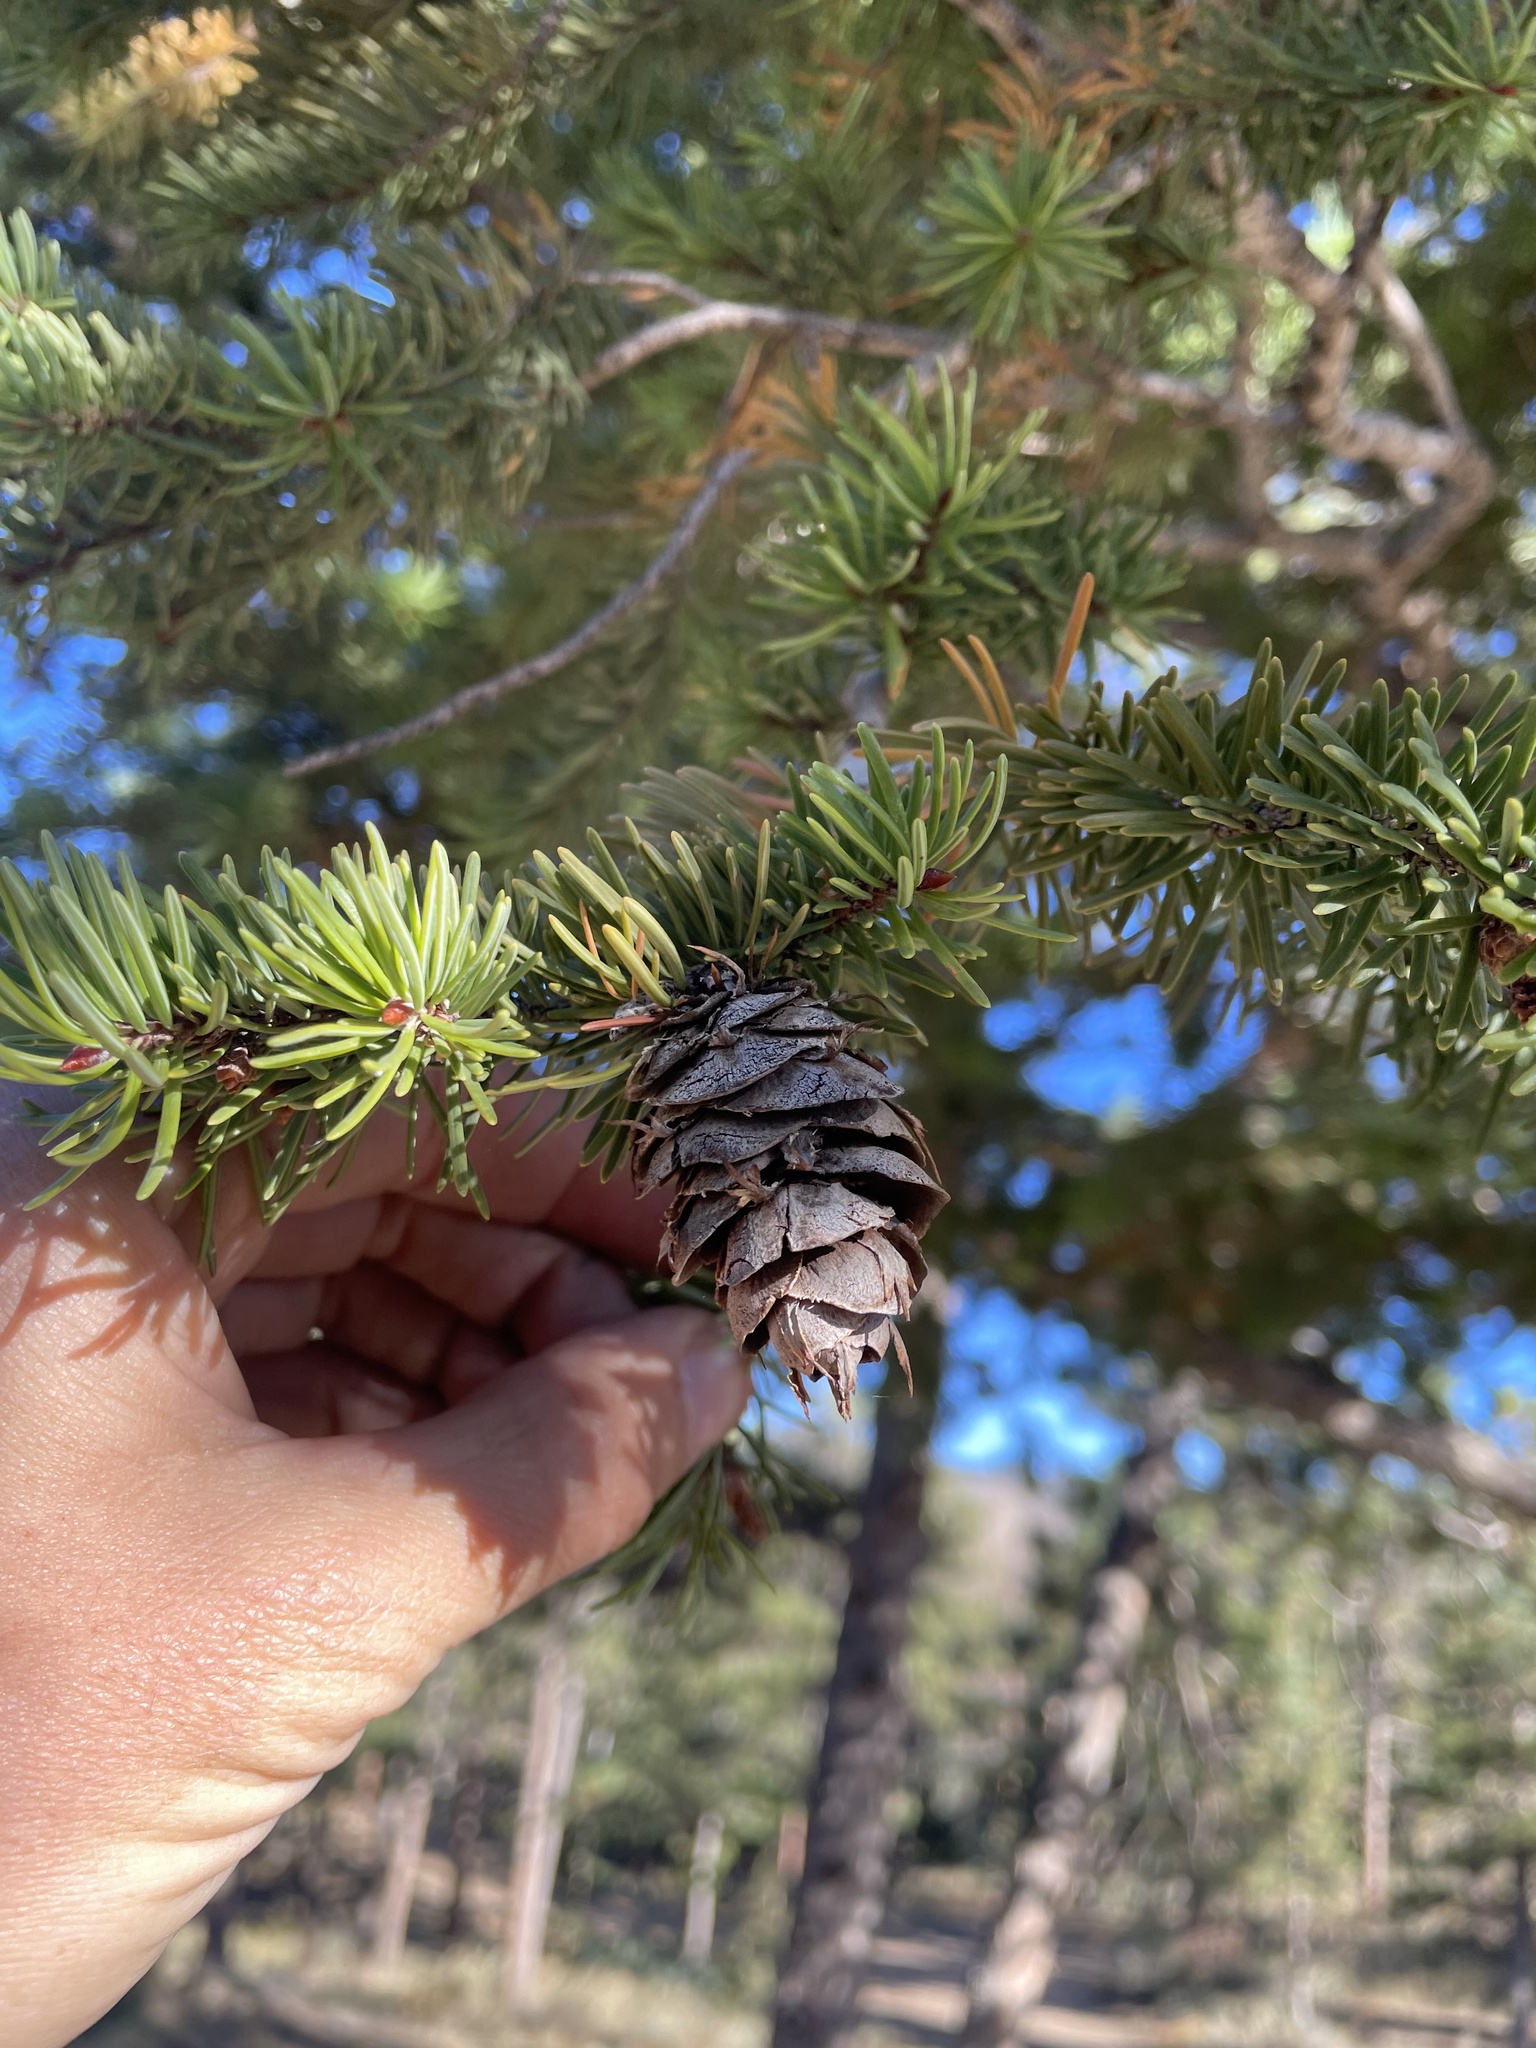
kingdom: Plantae
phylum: Tracheophyta
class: Pinopsida
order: Pinales
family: Pinaceae
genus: Pseudotsuga
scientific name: Pseudotsuga menziesii
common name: Douglas fir
